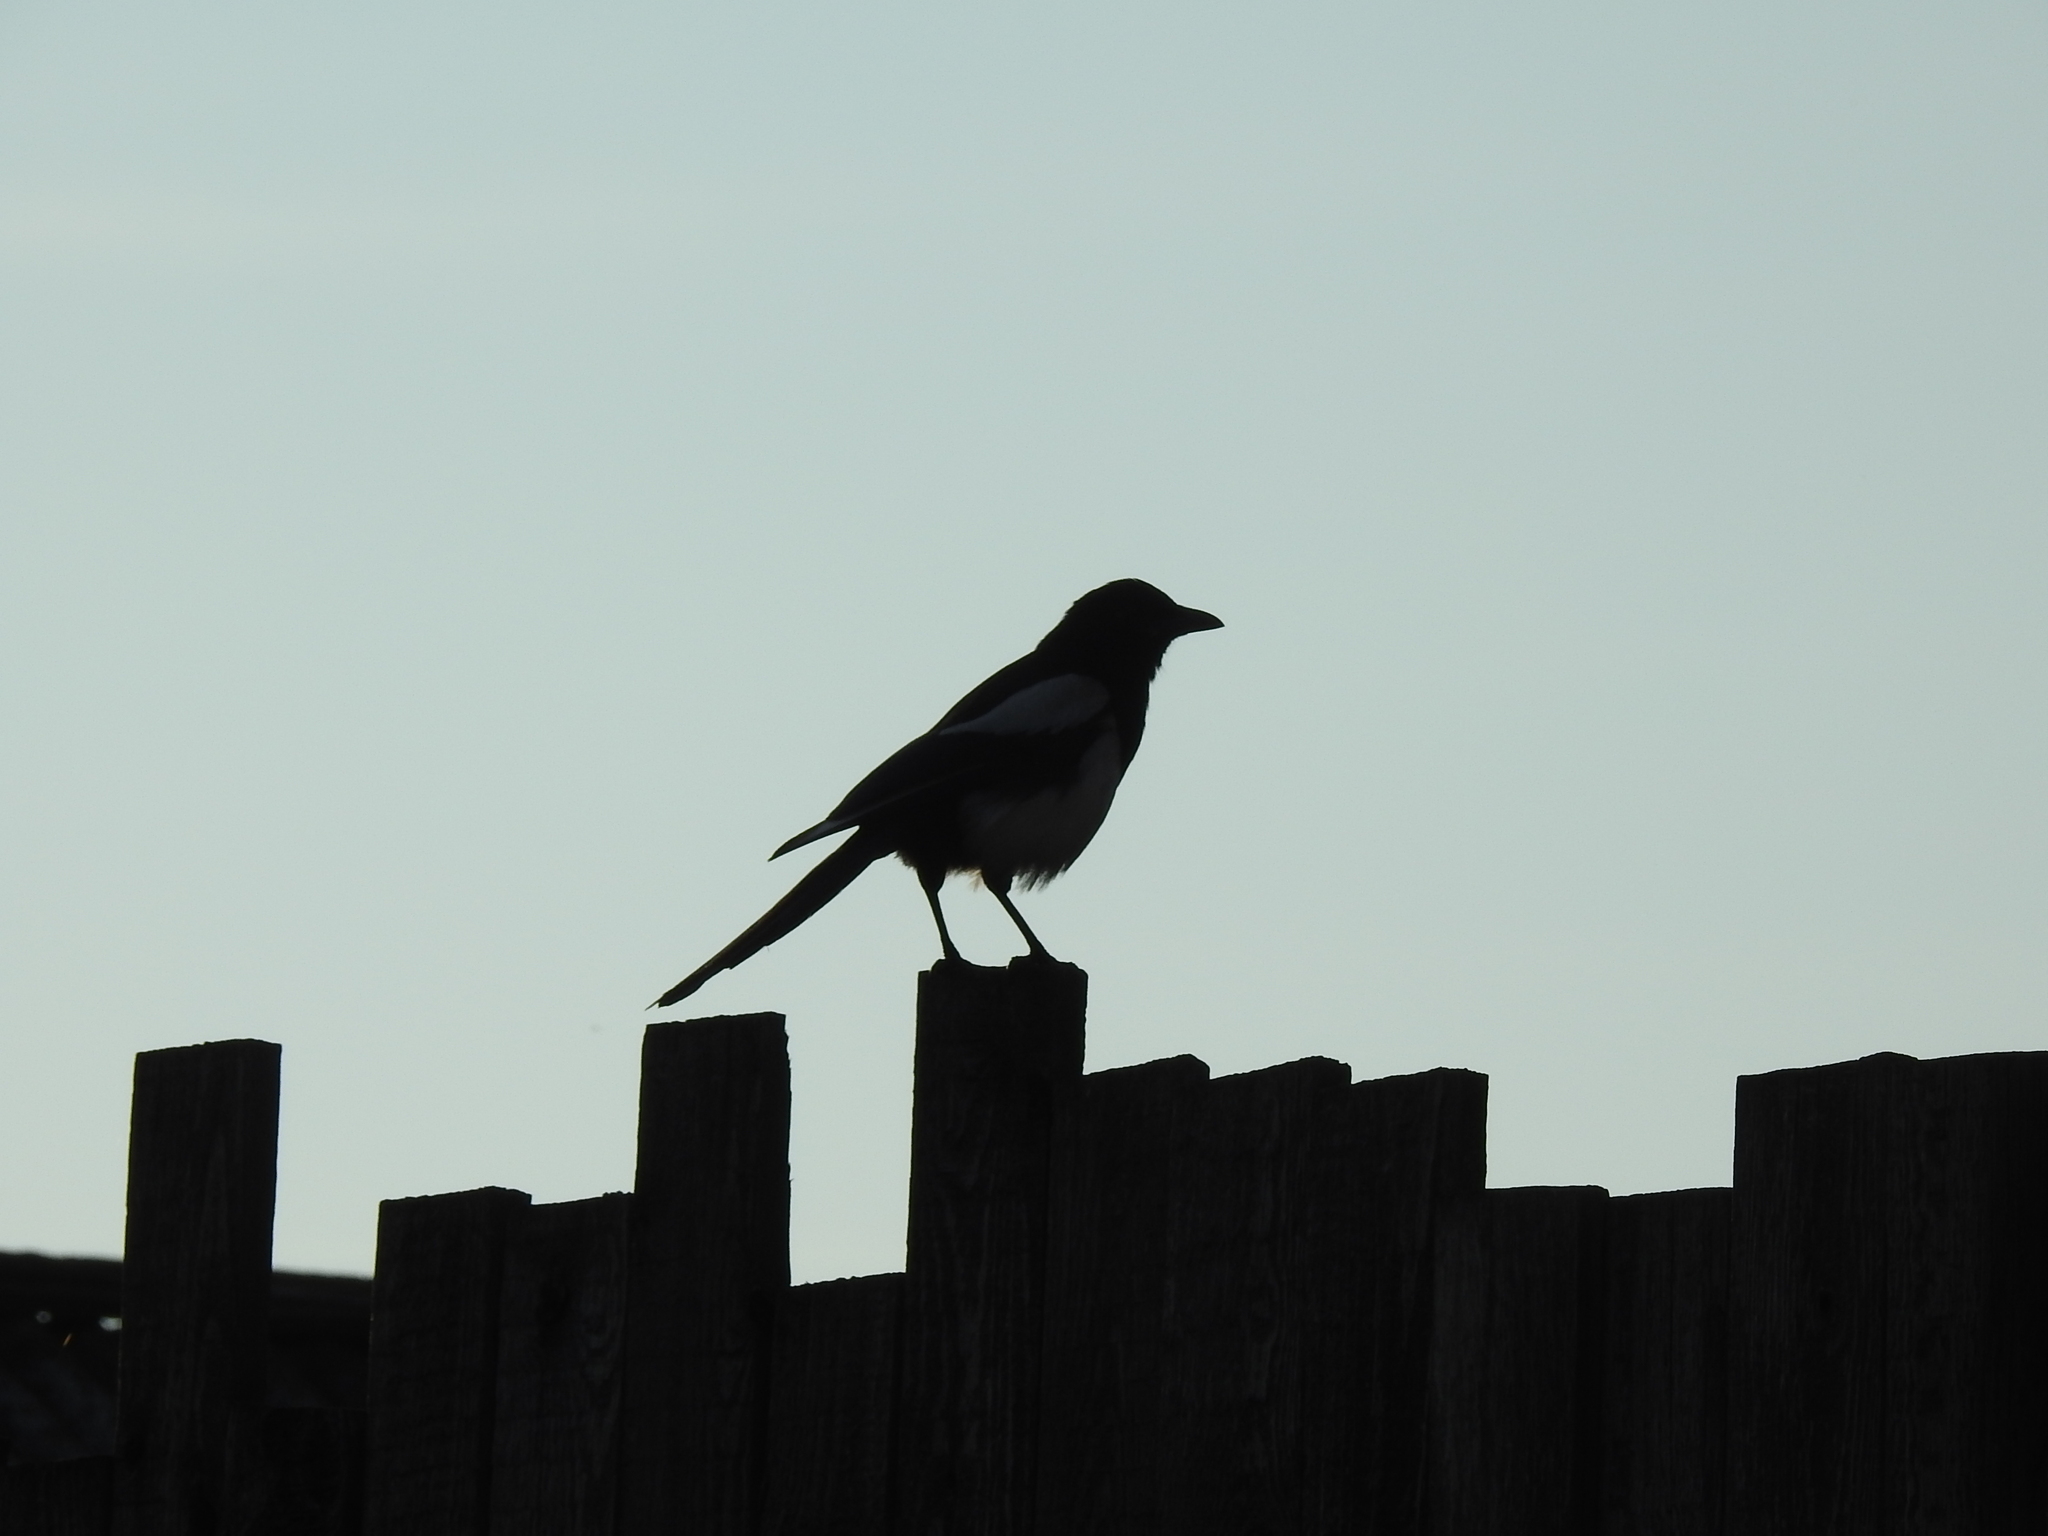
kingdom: Animalia
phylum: Chordata
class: Aves
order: Passeriformes
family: Corvidae
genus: Pica
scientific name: Pica pica
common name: Eurasian magpie
